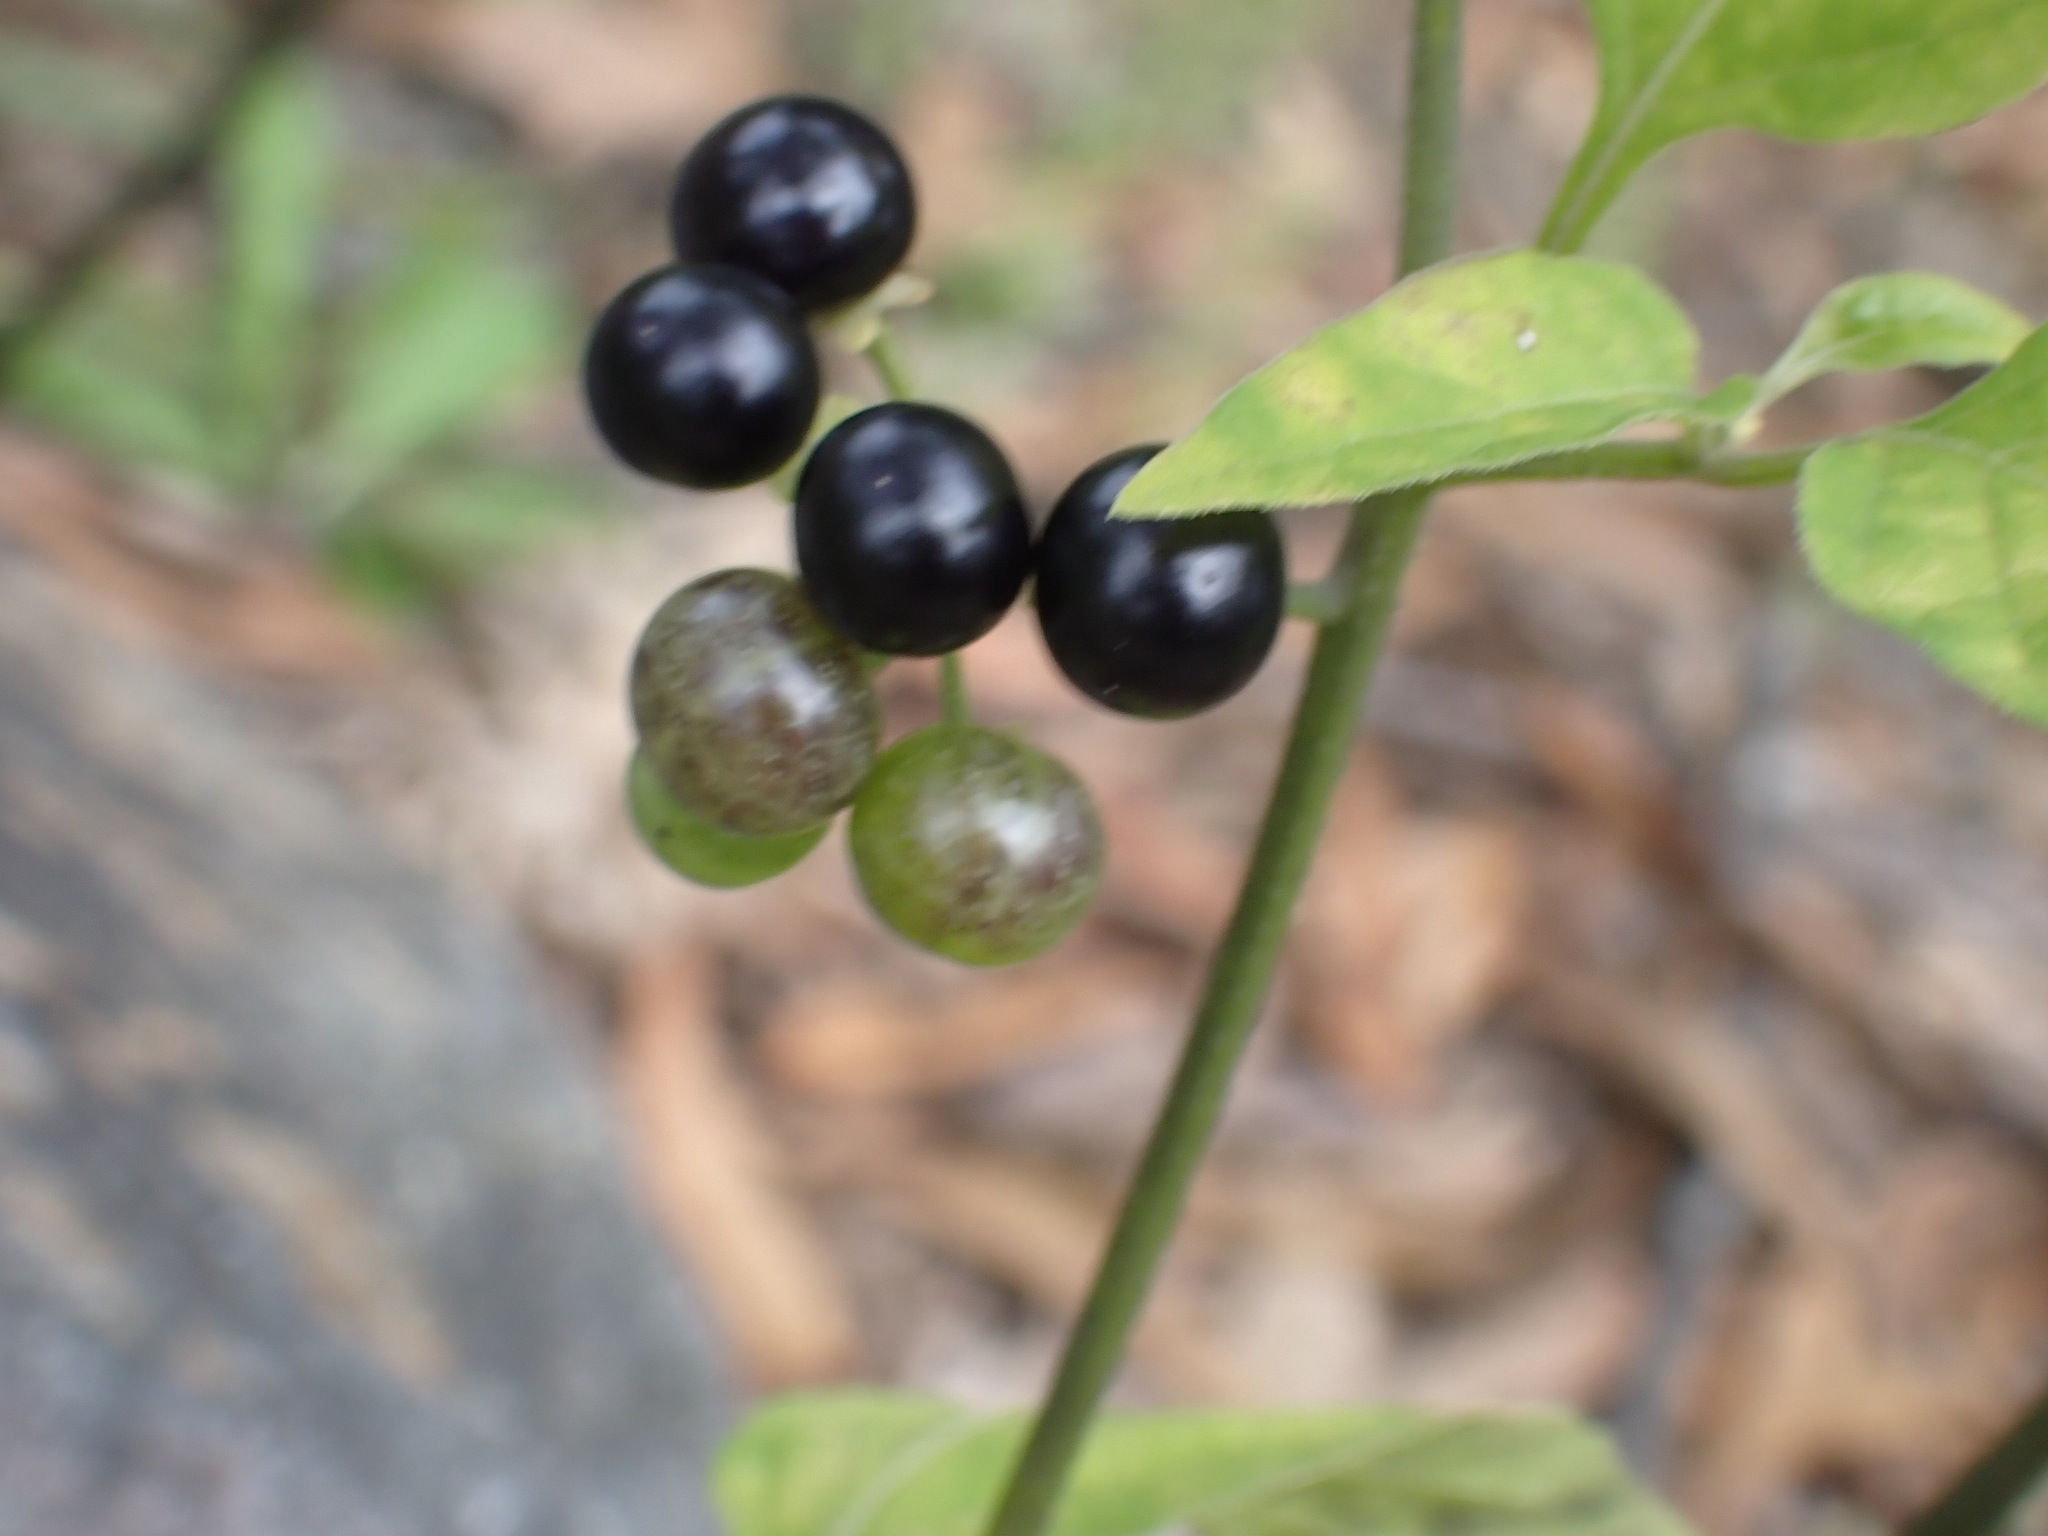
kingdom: Plantae
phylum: Tracheophyta
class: Magnoliopsida
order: Solanales
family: Solanaceae
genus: Solanum
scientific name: Solanum americanum
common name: American black nightshade
